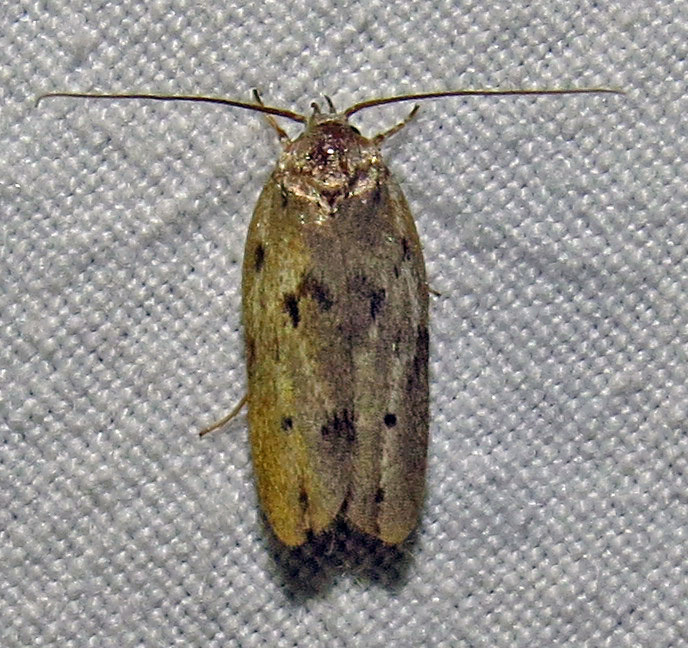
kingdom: Animalia
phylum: Arthropoda
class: Insecta
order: Lepidoptera
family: Depressariidae
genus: Antaeotricha
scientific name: Antaeotricha humilis
